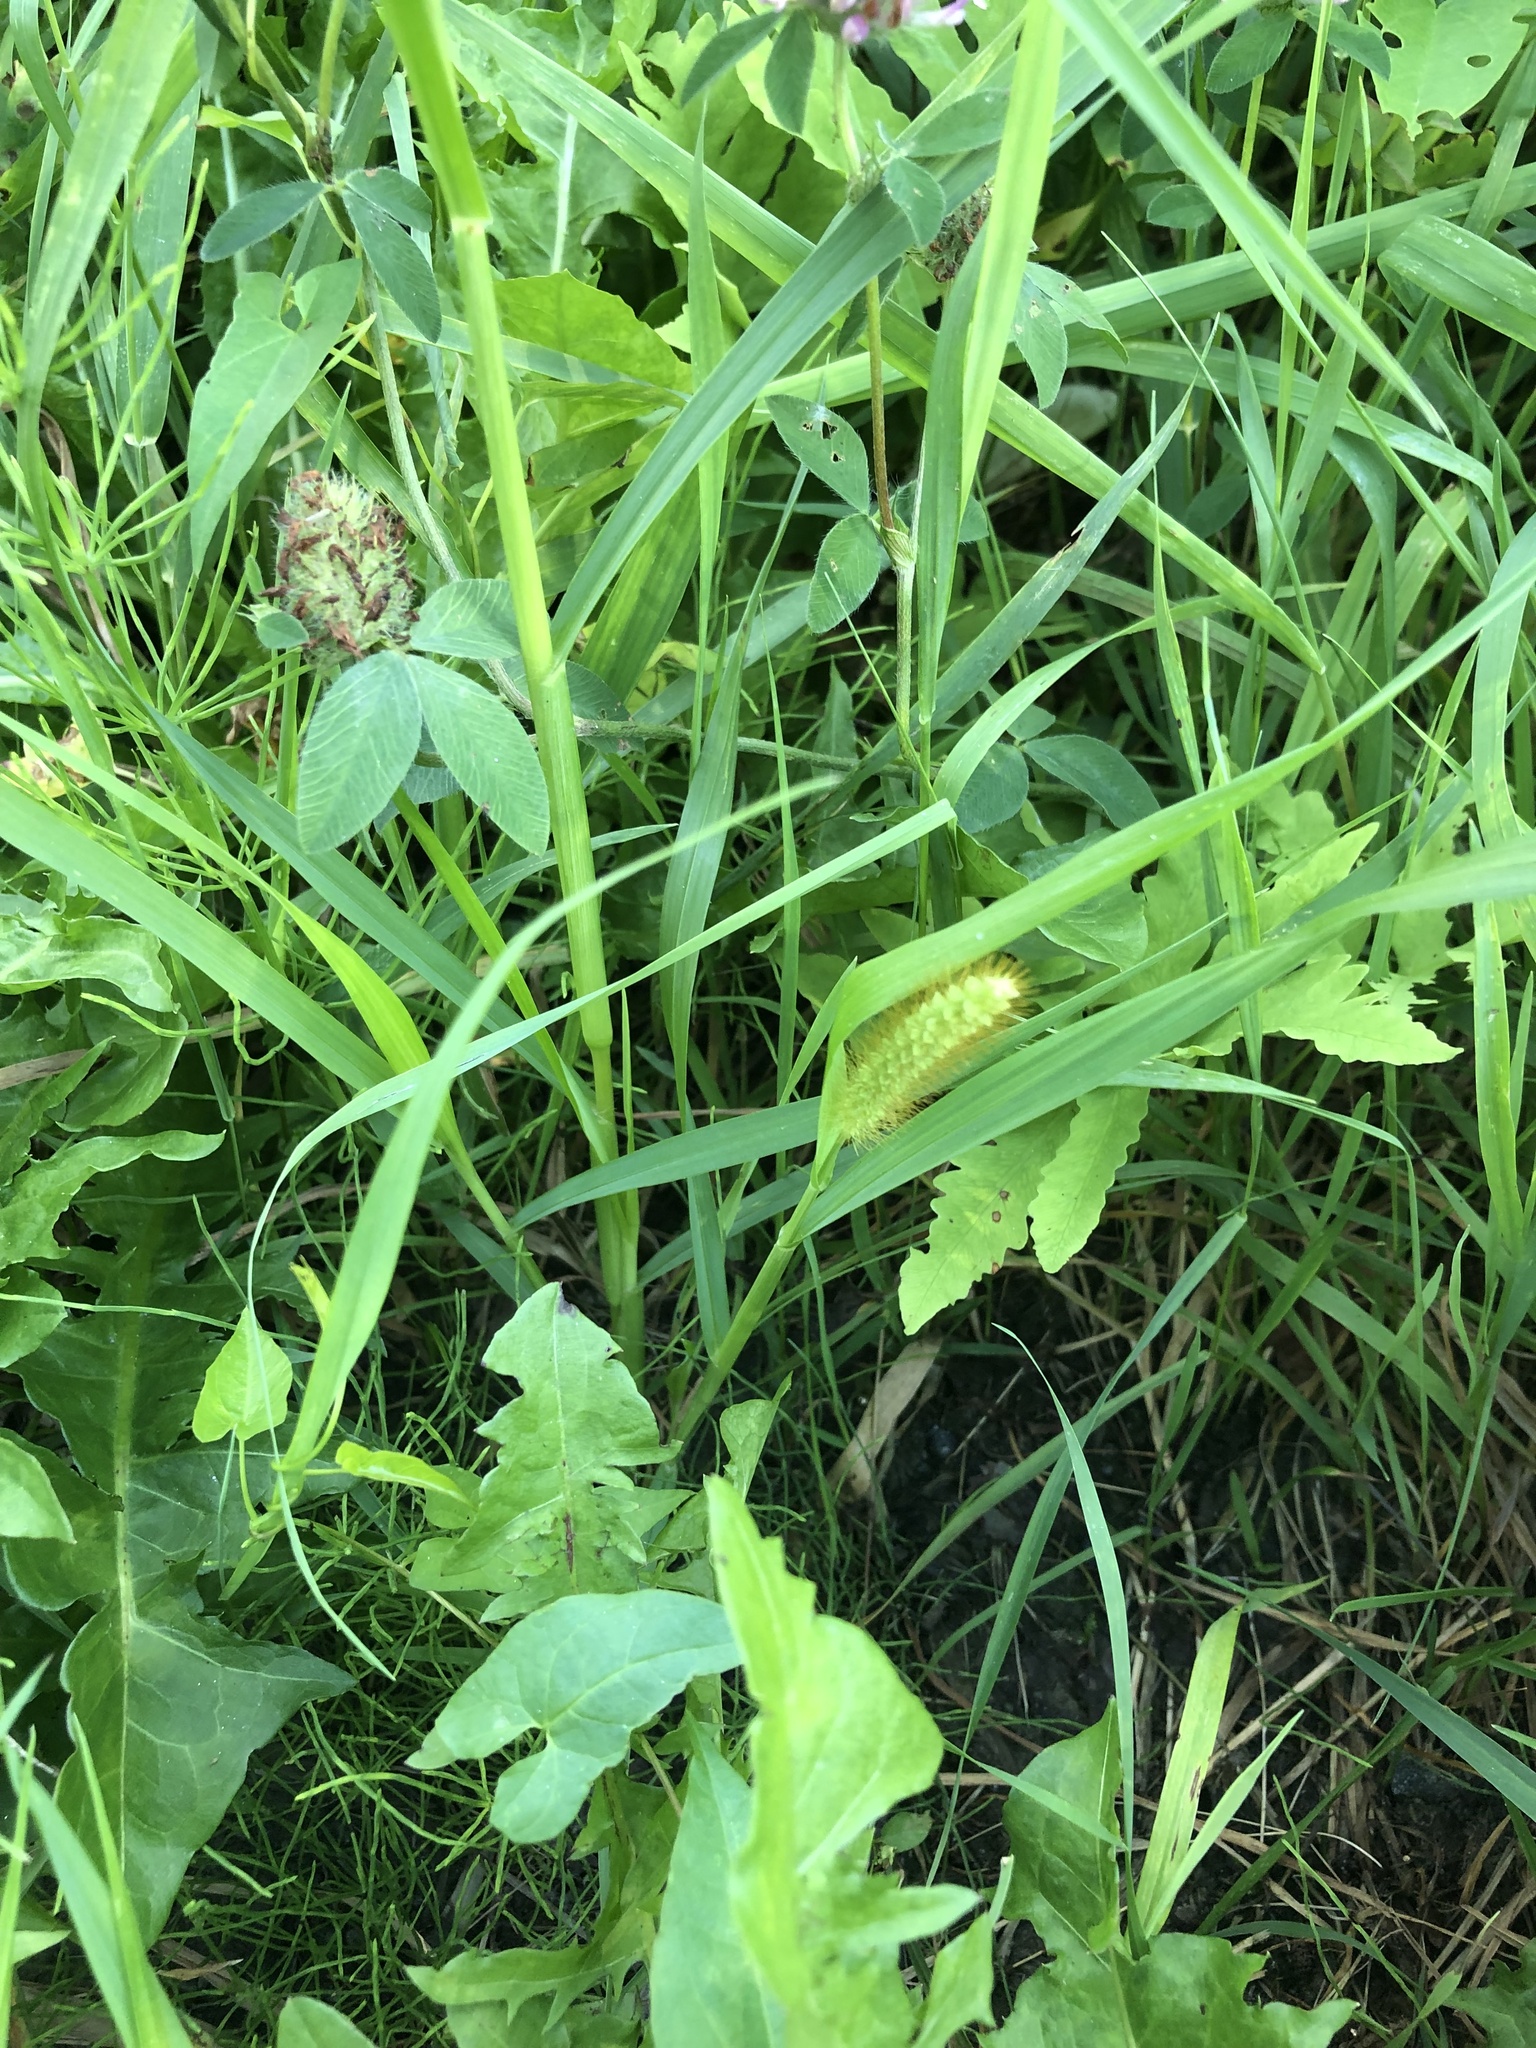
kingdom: Plantae
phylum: Tracheophyta
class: Liliopsida
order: Poales
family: Poaceae
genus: Setaria
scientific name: Setaria pumila
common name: Yellow bristle-grass
